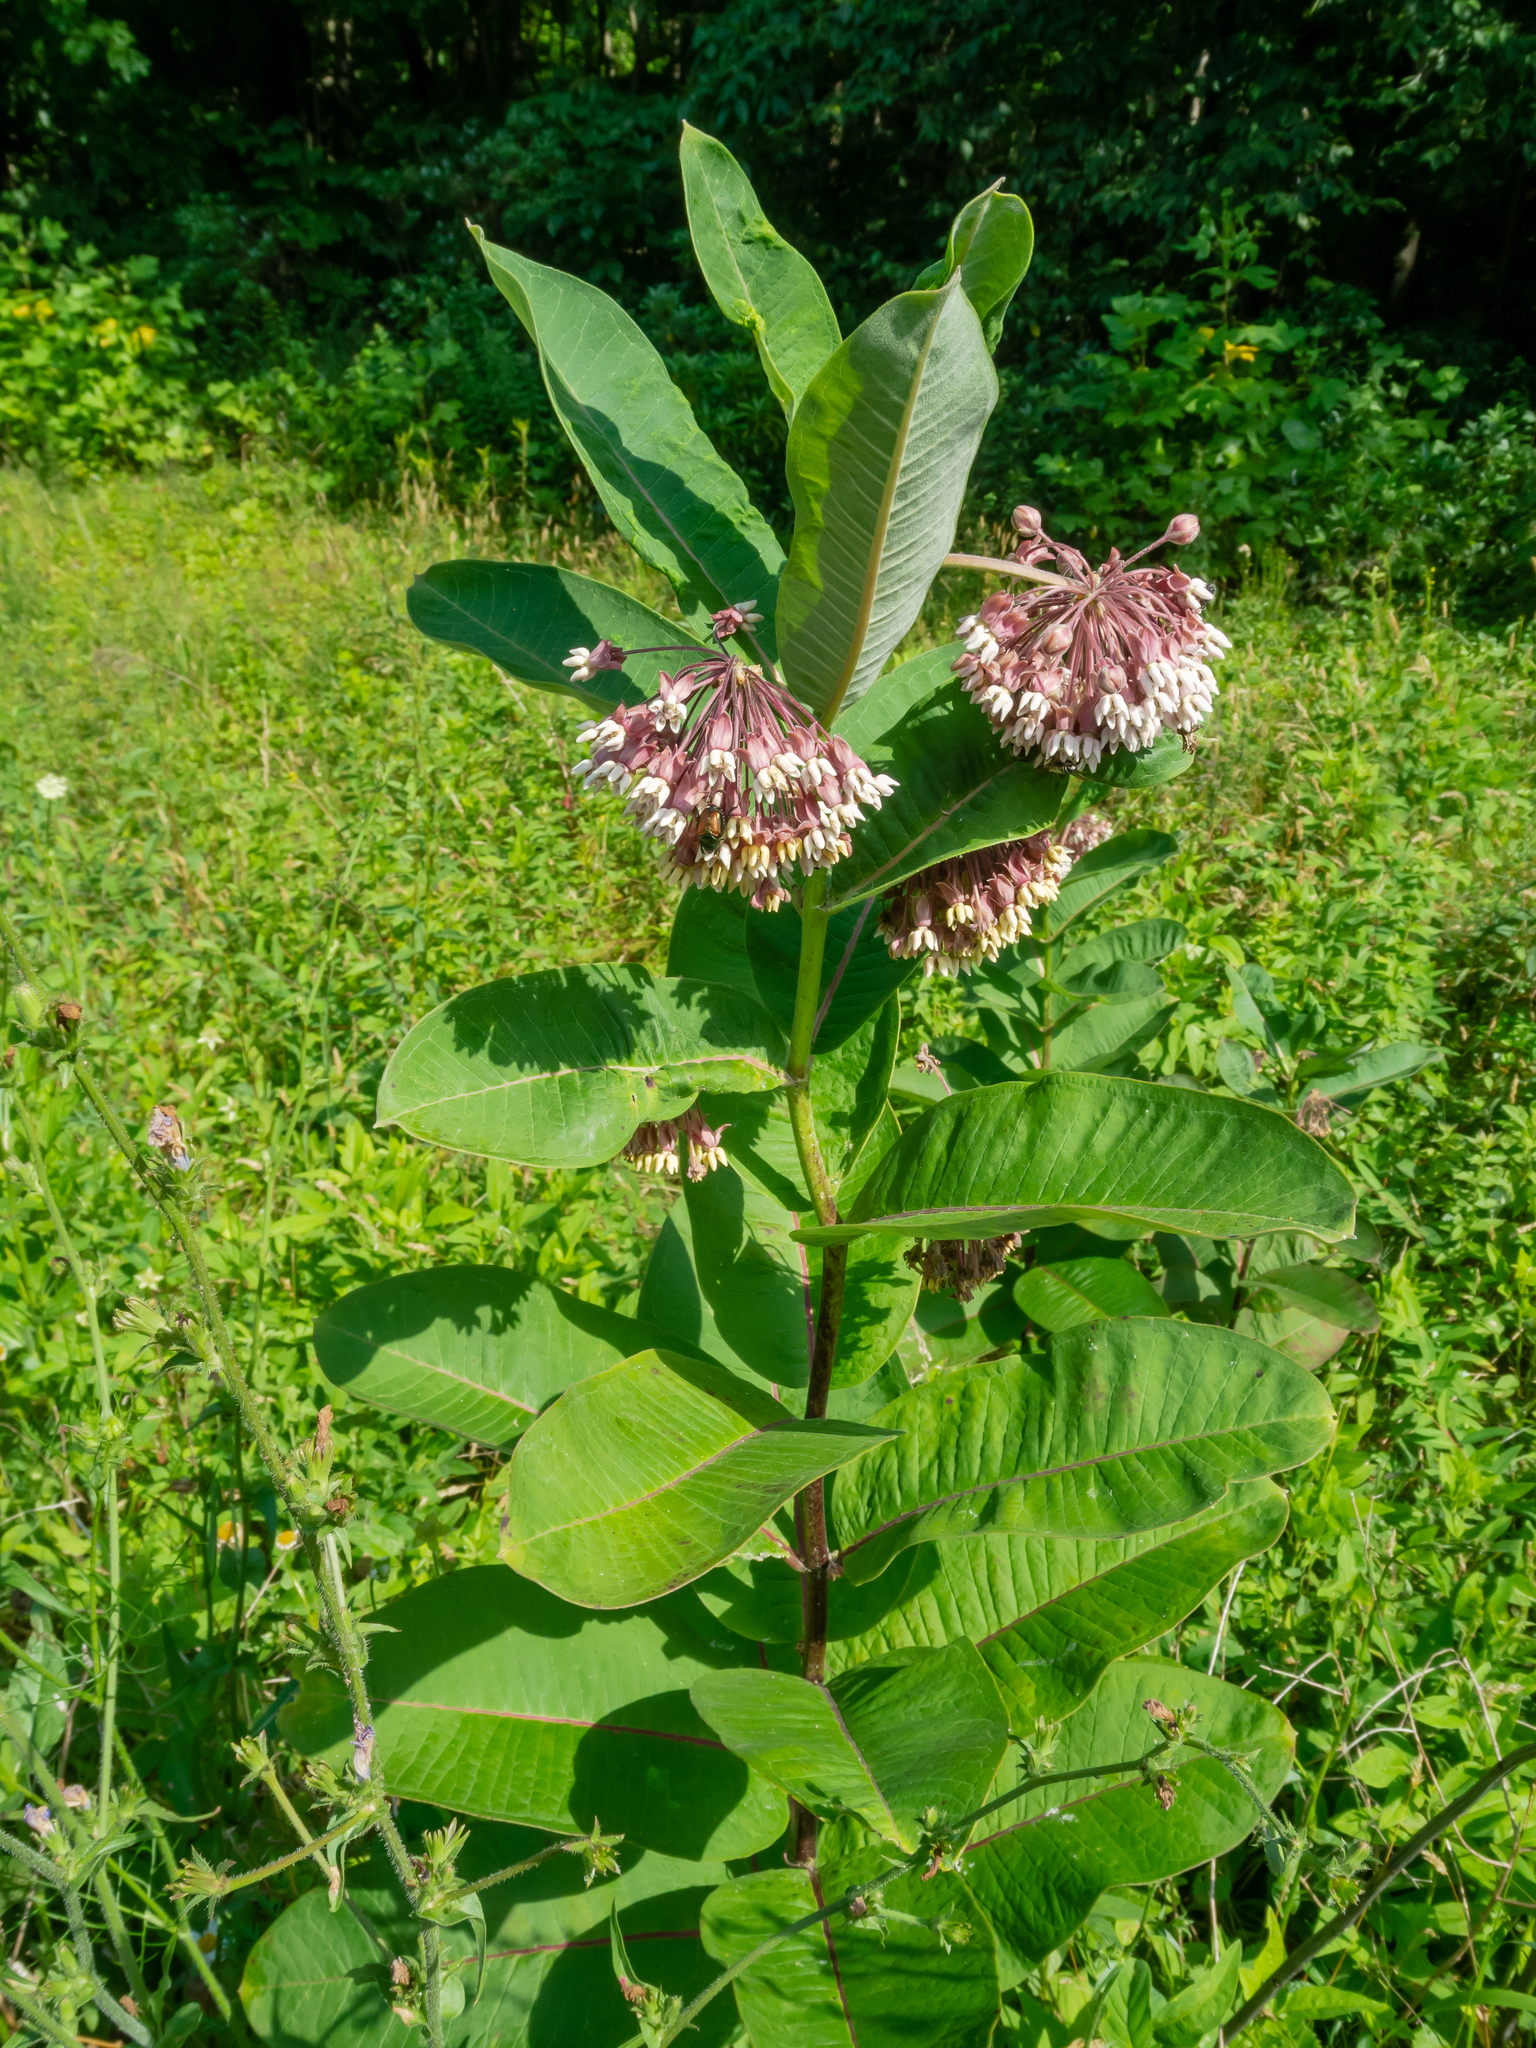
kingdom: Plantae
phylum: Tracheophyta
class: Magnoliopsida
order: Gentianales
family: Apocynaceae
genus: Asclepias
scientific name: Asclepias syriaca
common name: Common milkweed
